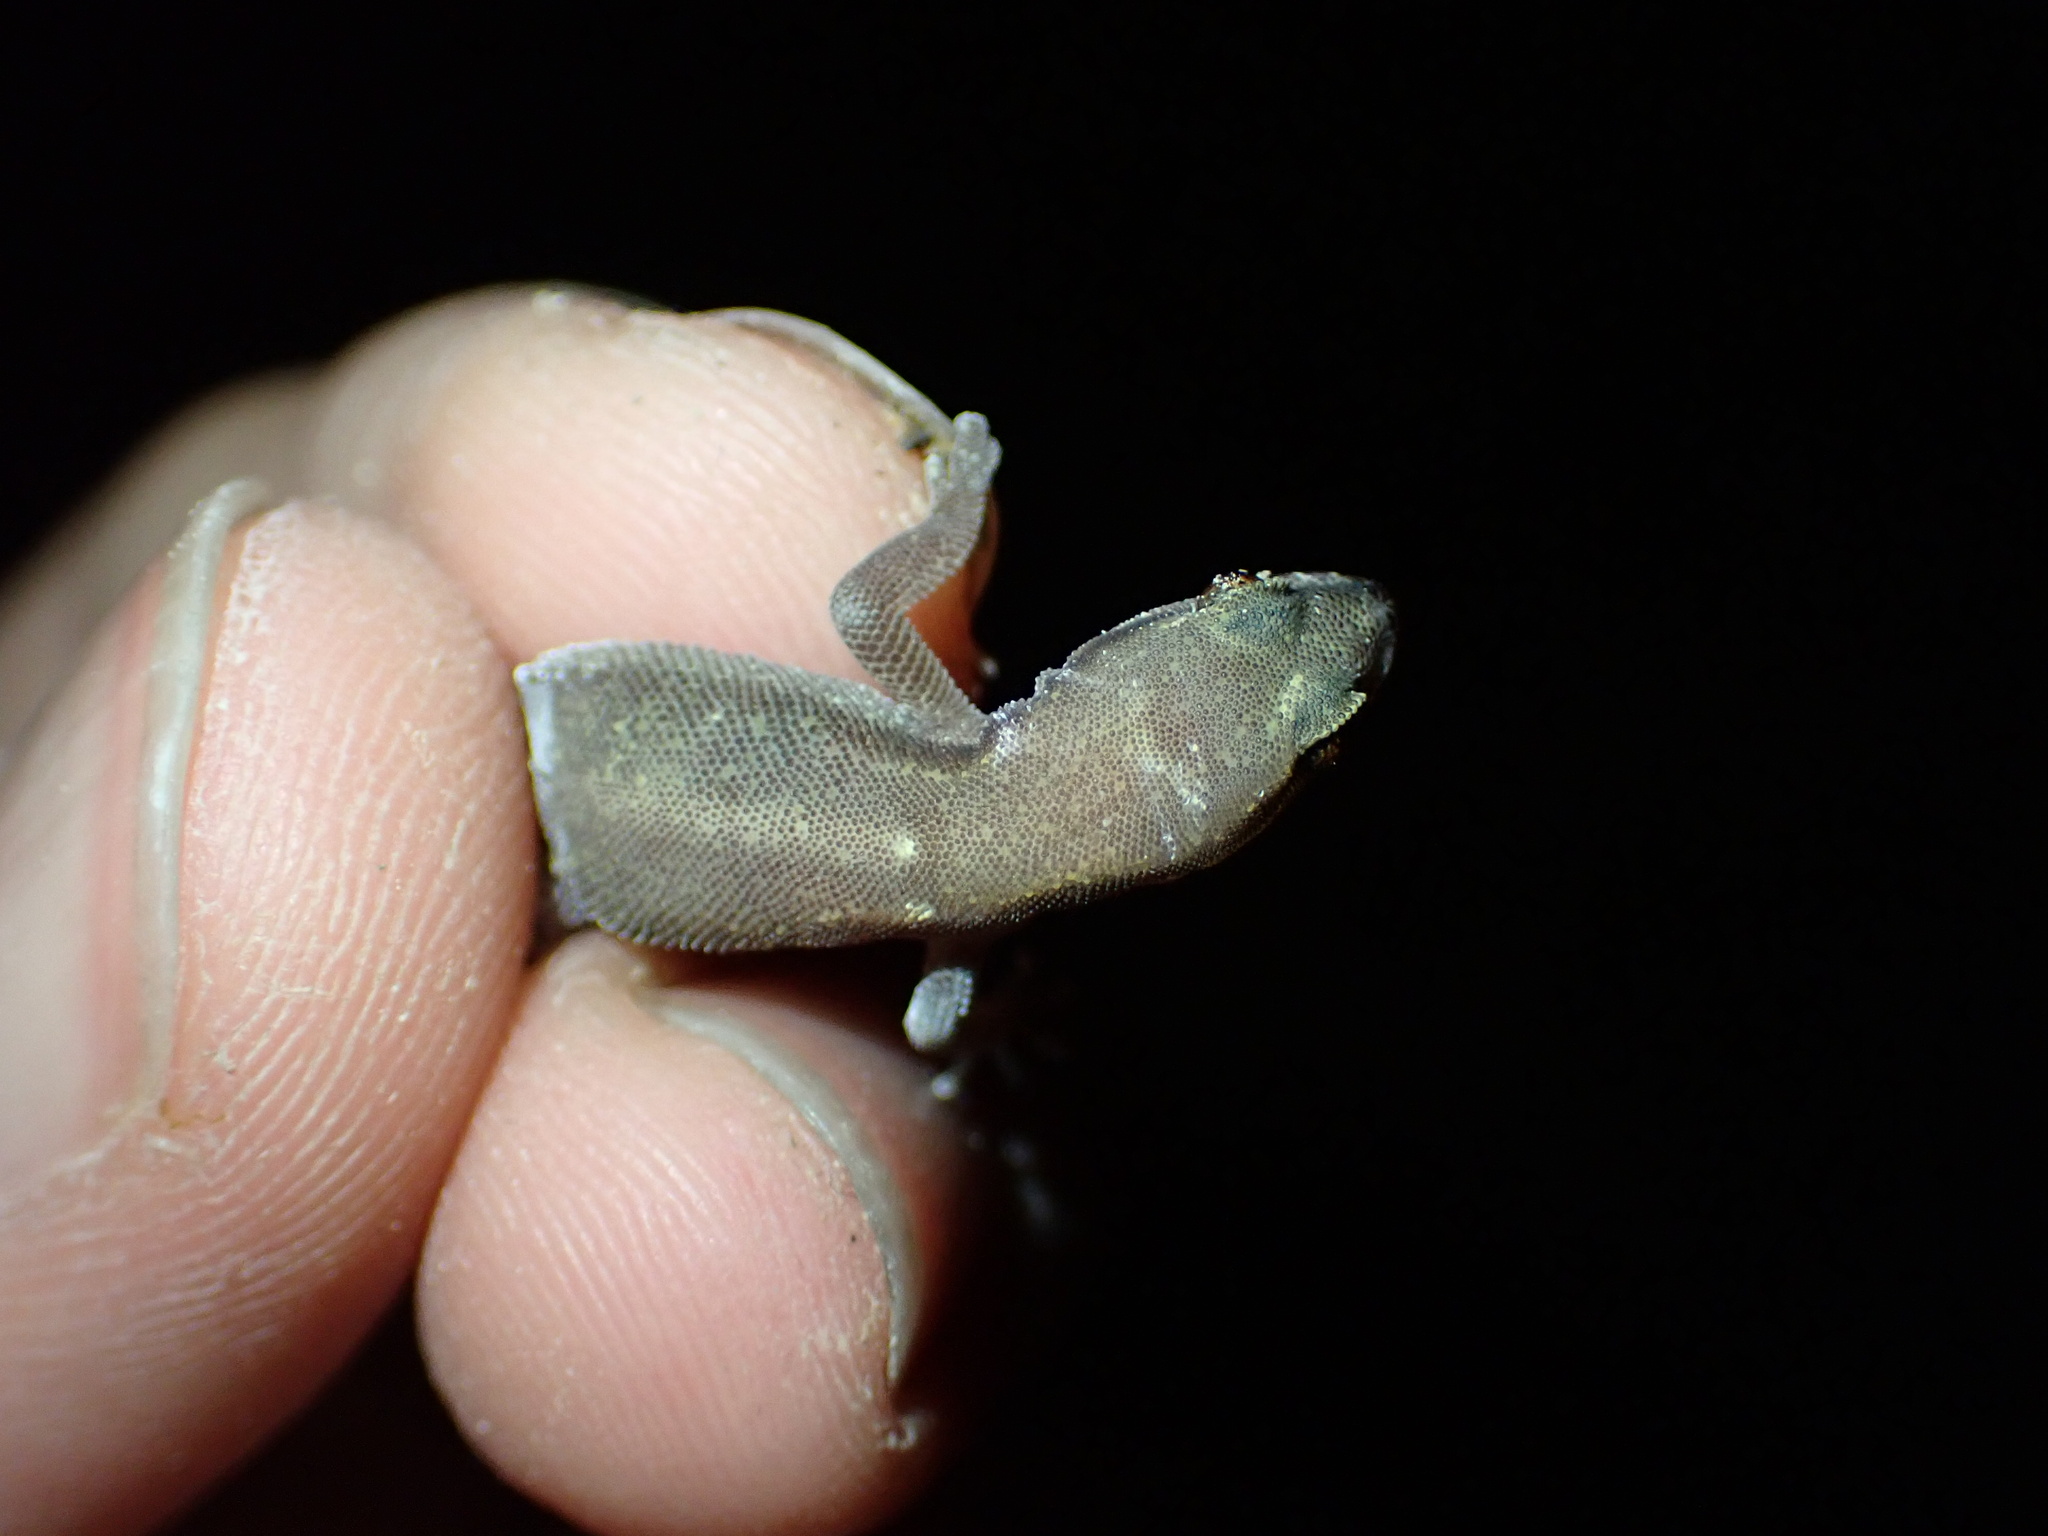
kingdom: Animalia
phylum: Chordata
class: Squamata
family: Gekkonidae
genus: Microgecko
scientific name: Microgecko helenae
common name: Banded dwarf gecko
